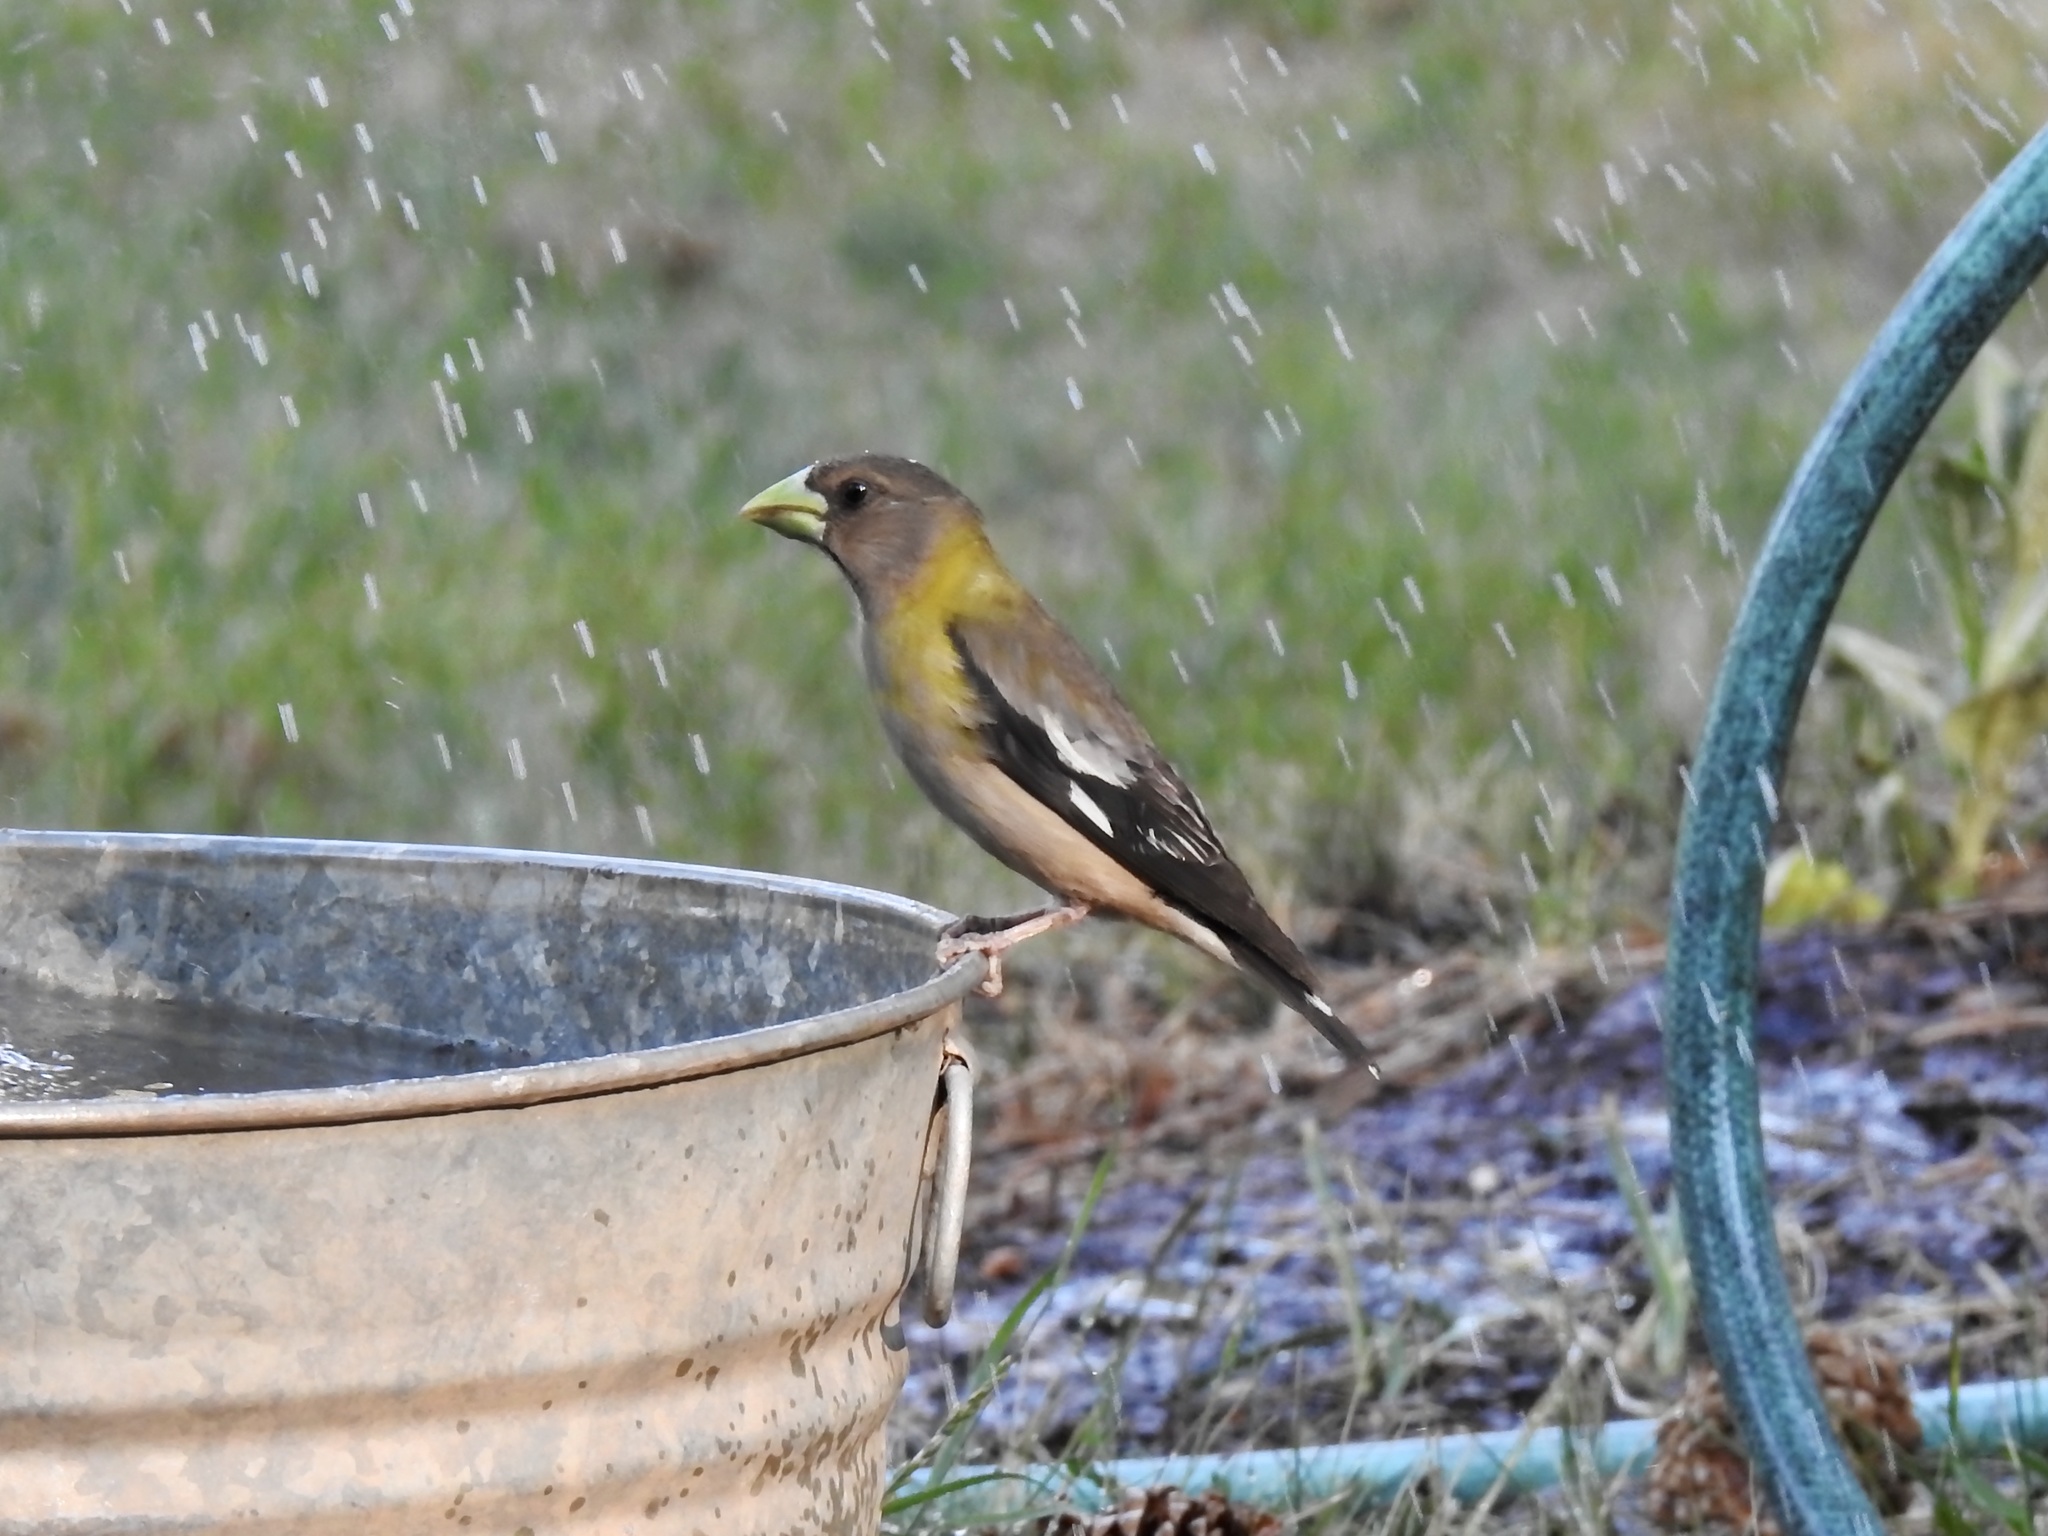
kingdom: Animalia
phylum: Chordata
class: Aves
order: Passeriformes
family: Fringillidae
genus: Hesperiphona
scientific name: Hesperiphona vespertina
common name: Evening grosbeak
